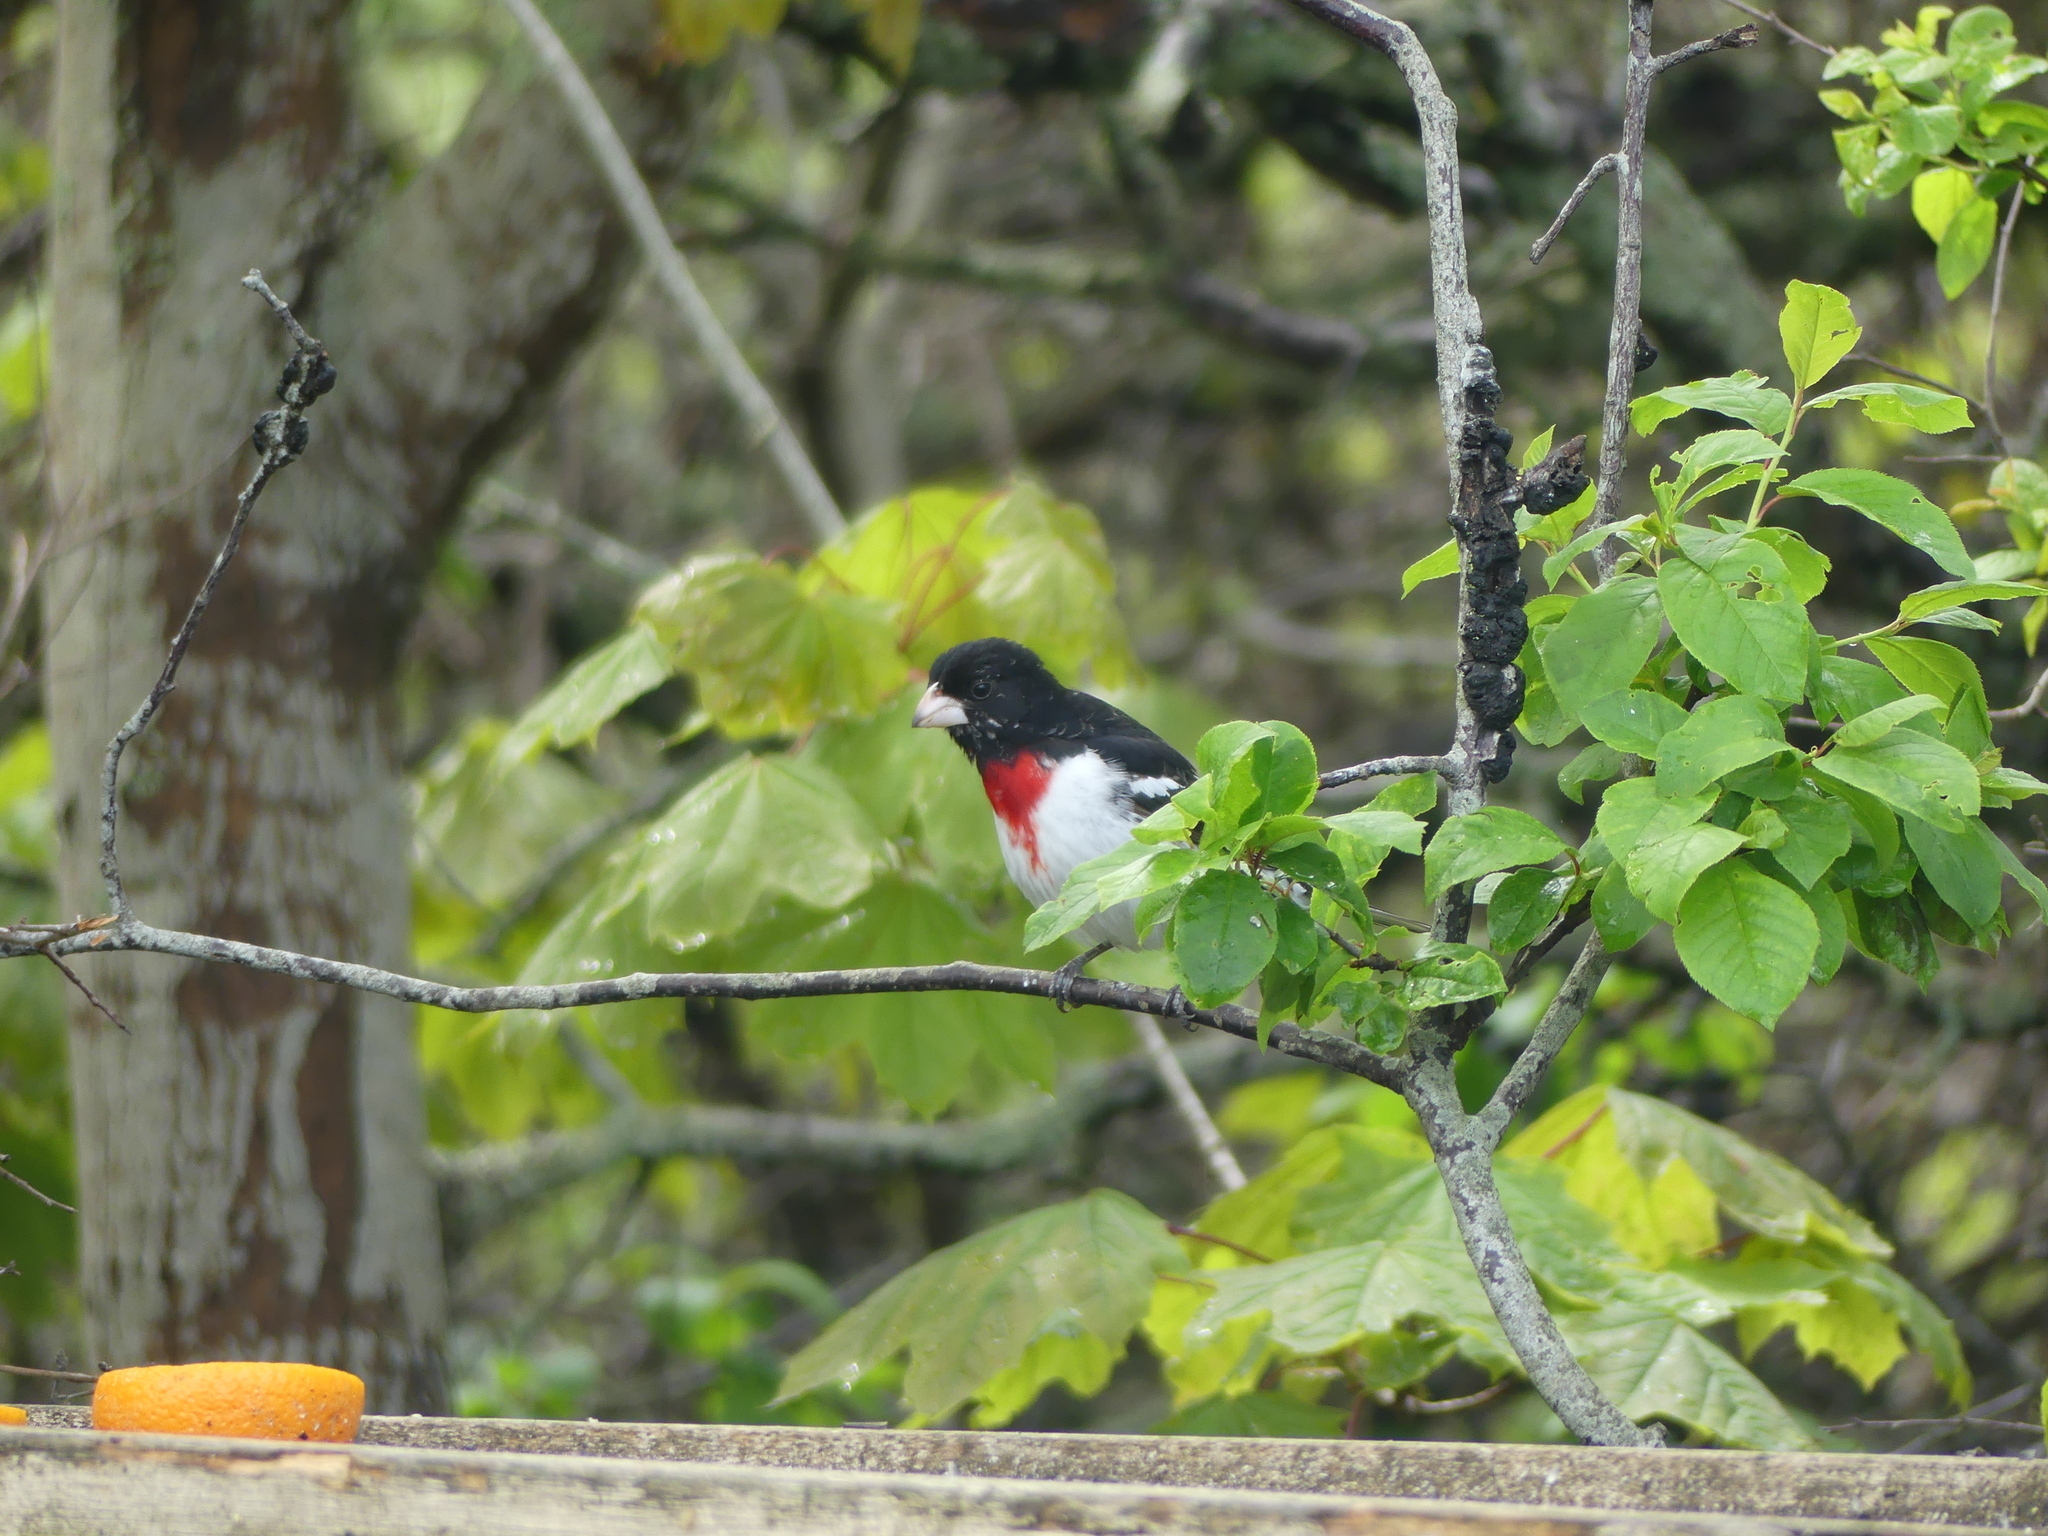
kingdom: Animalia
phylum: Chordata
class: Aves
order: Passeriformes
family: Cardinalidae
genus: Pheucticus
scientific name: Pheucticus ludovicianus
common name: Rose-breasted grosbeak
